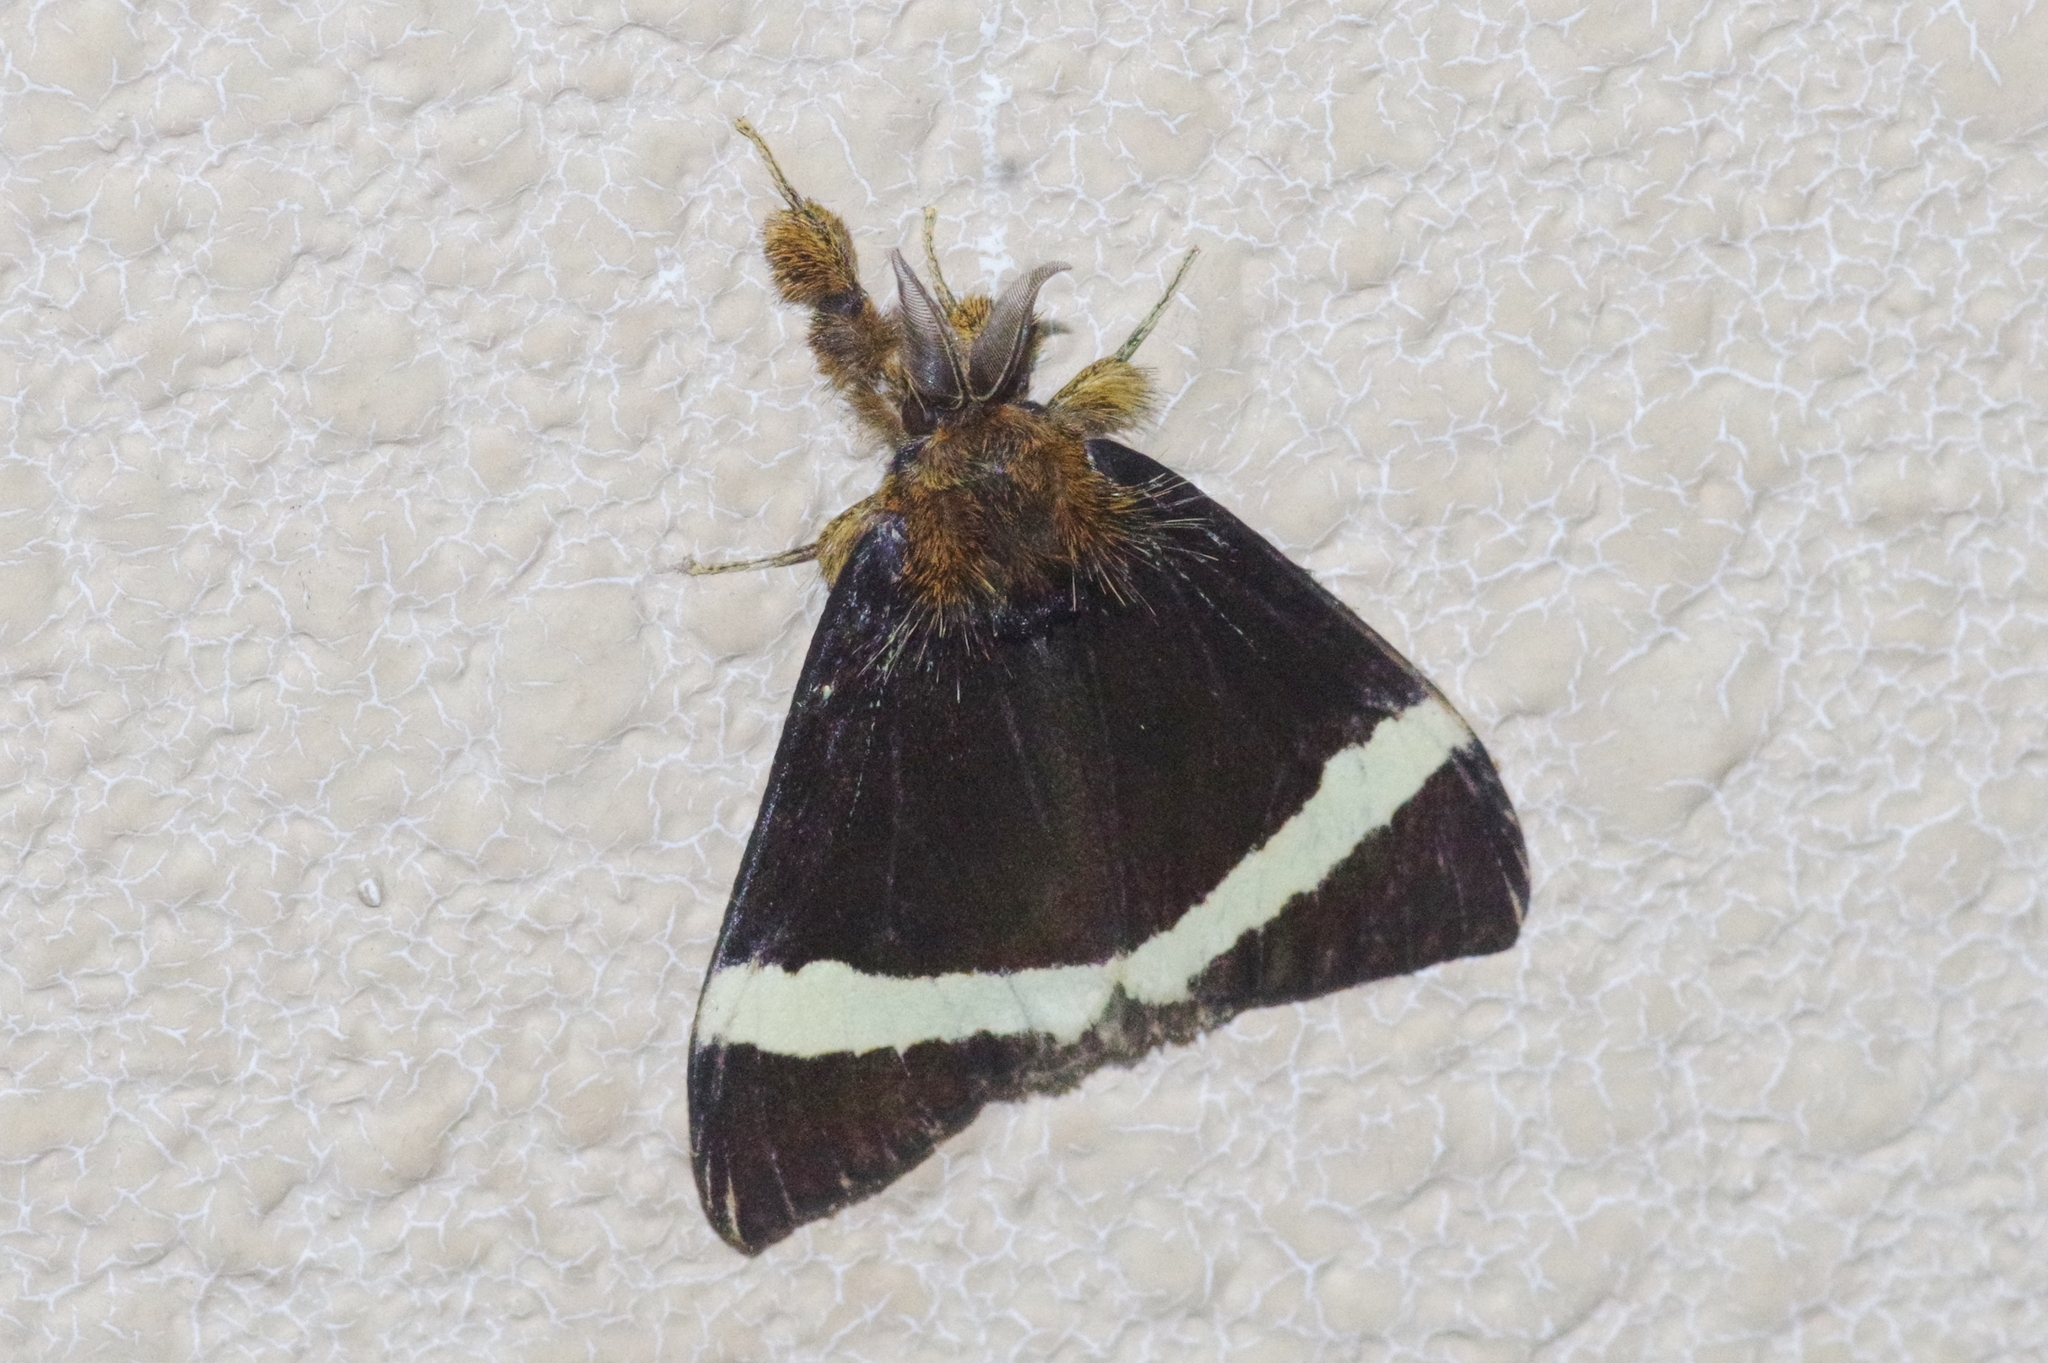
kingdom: Animalia
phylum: Arthropoda
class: Insecta
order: Lepidoptera
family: Erebidae
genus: Numenes
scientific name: Numenes disparilis
